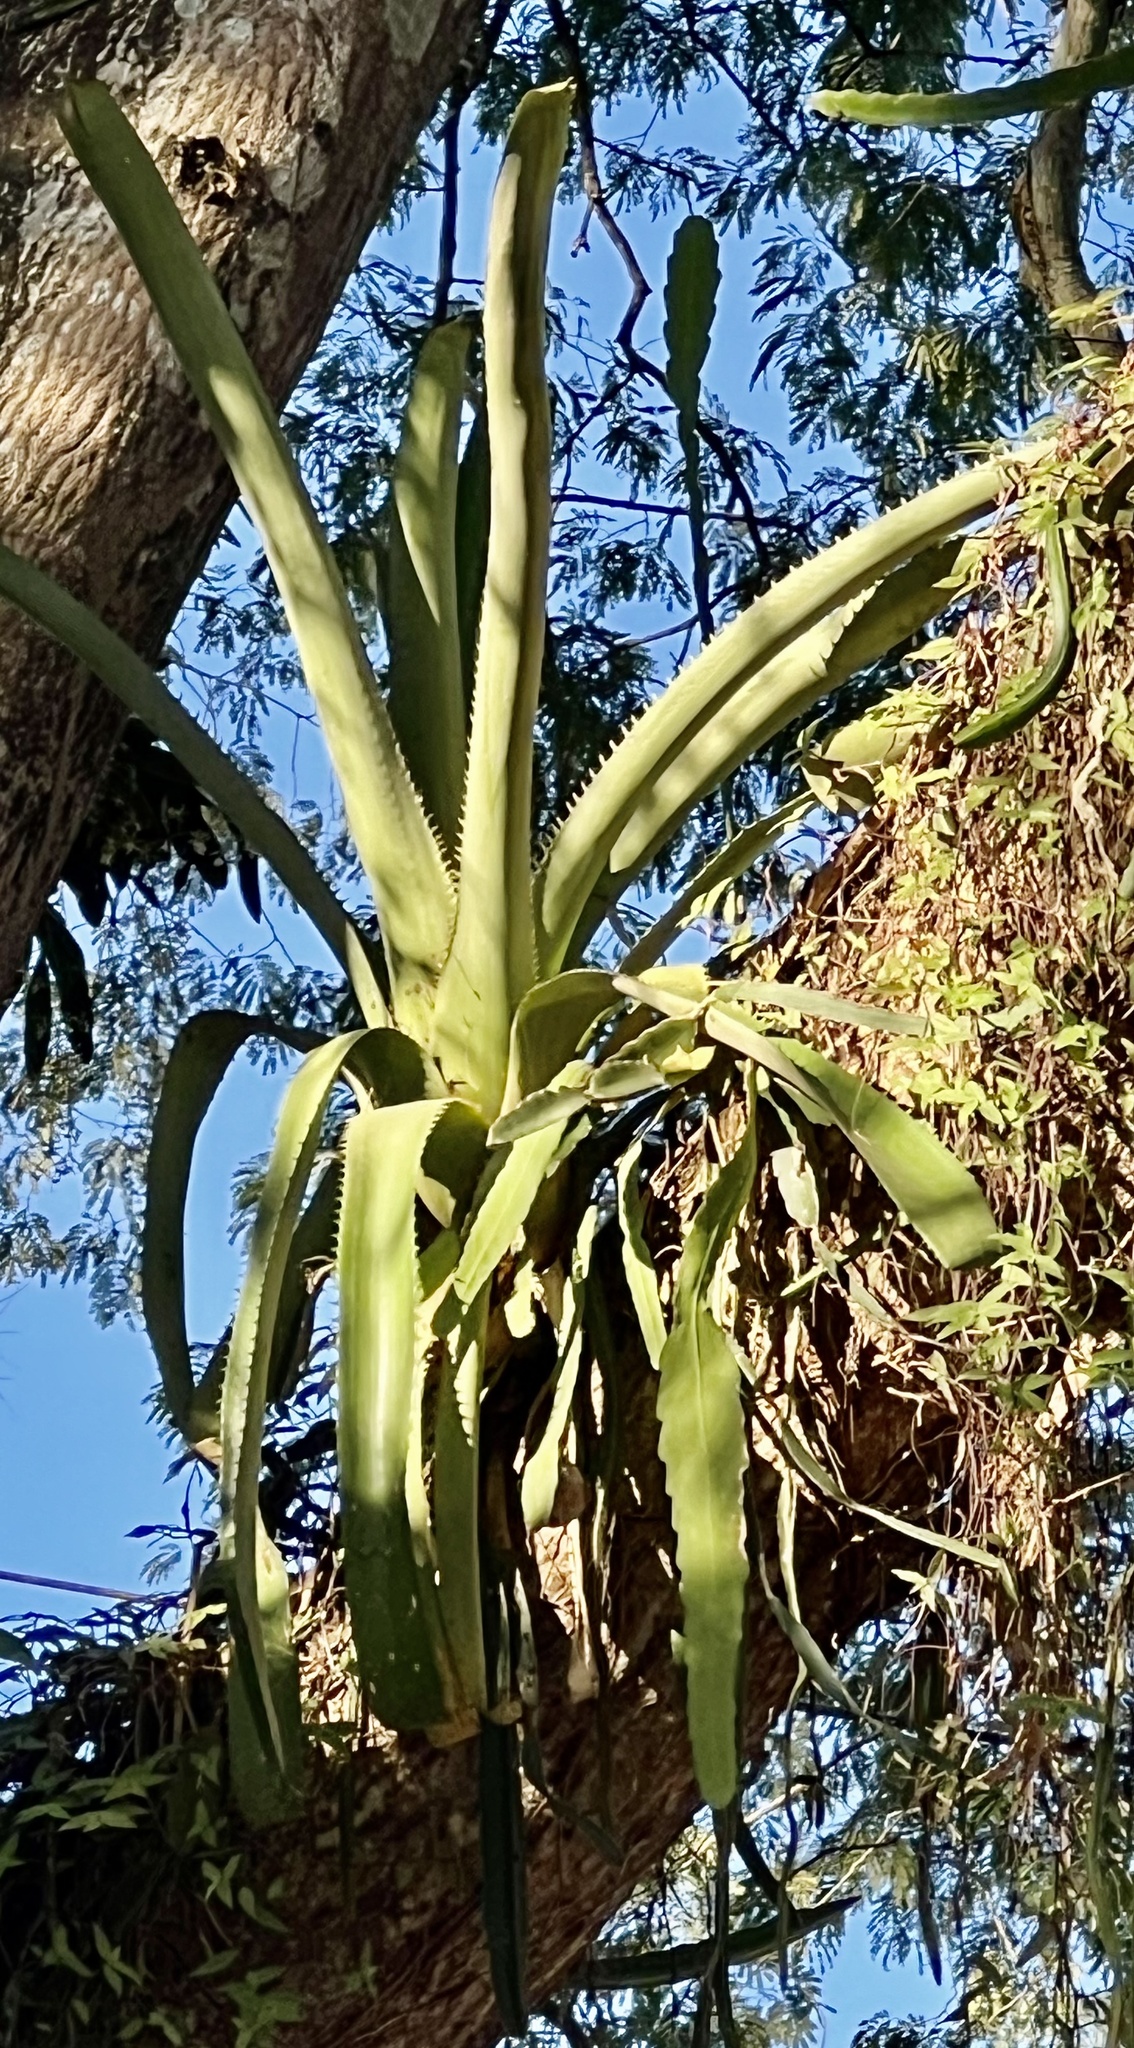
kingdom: Plantae
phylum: Tracheophyta
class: Liliopsida
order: Poales
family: Bromeliaceae
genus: Aechmea
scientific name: Aechmea bracteata
